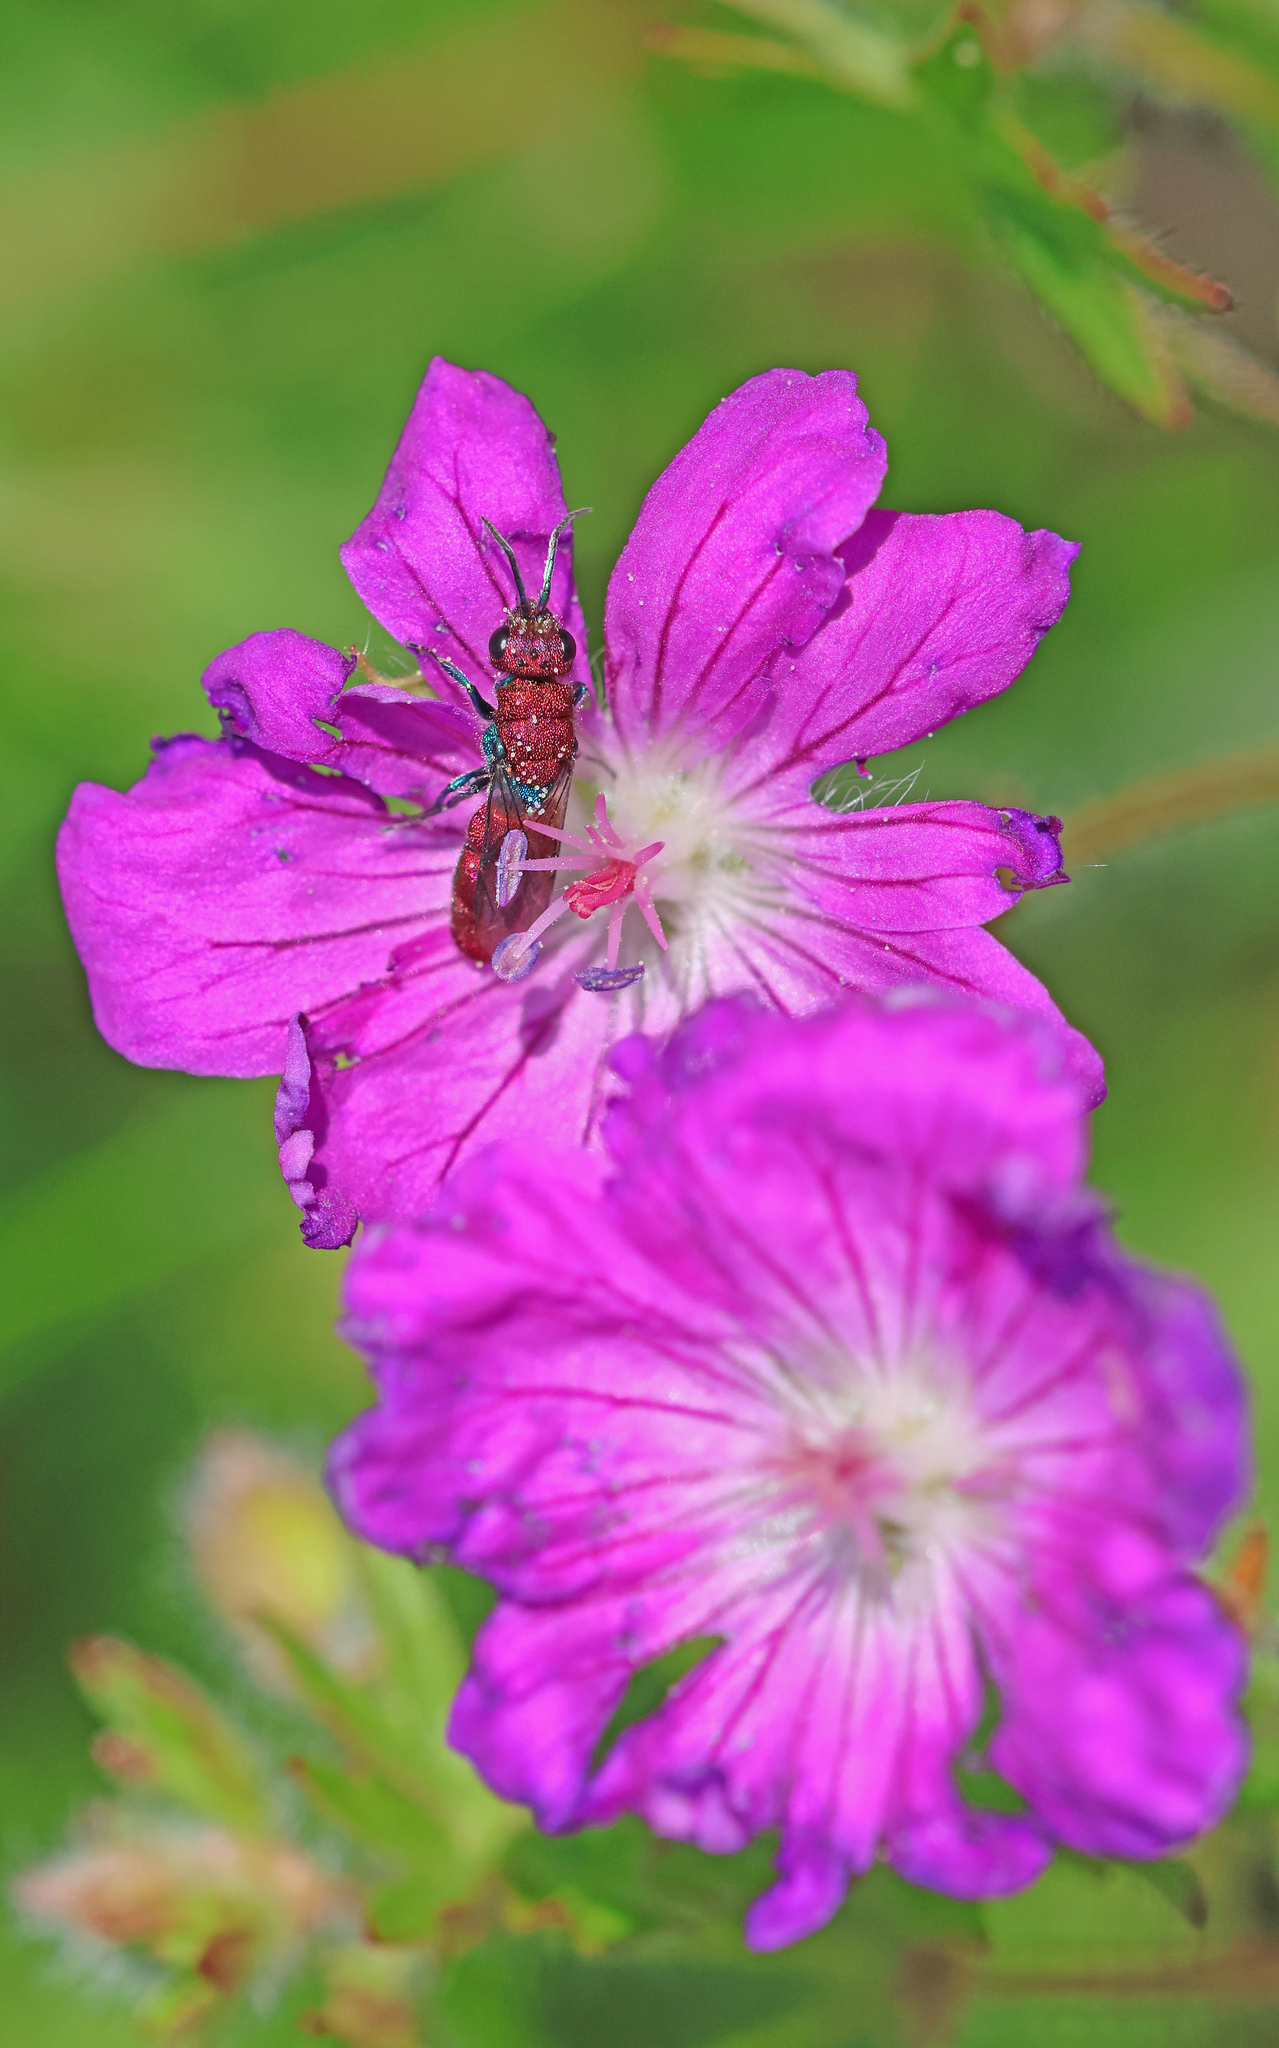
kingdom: Animalia
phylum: Arthropoda
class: Insecta
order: Hymenoptera
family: Chrysididae
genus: Chrysura
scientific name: Chrysura cuprea
